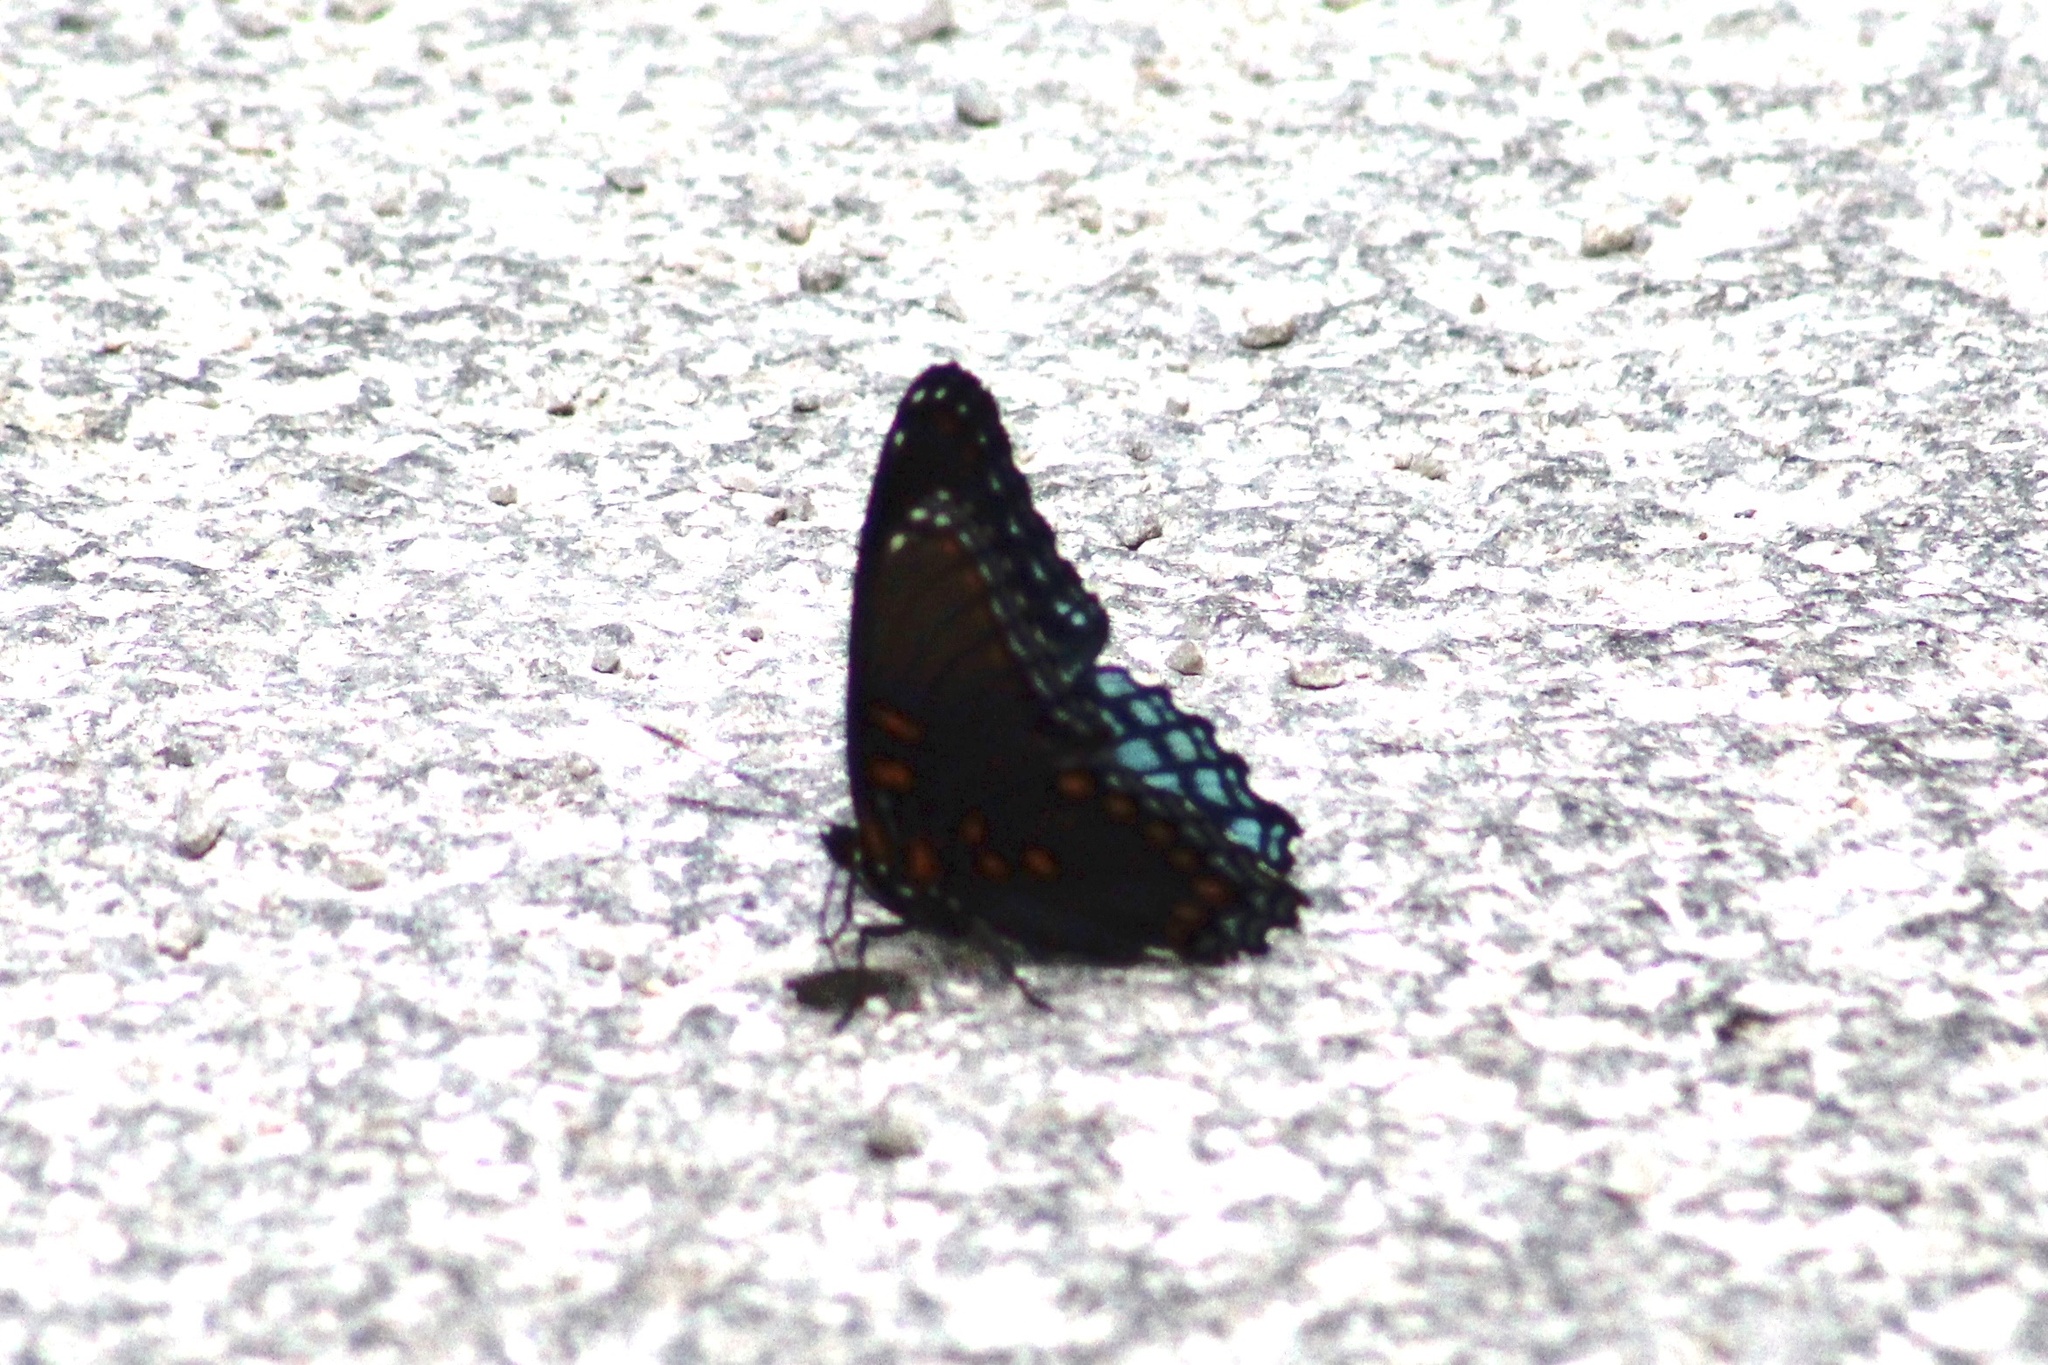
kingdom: Animalia
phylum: Arthropoda
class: Insecta
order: Lepidoptera
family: Nymphalidae
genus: Limenitis
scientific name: Limenitis astyanax
